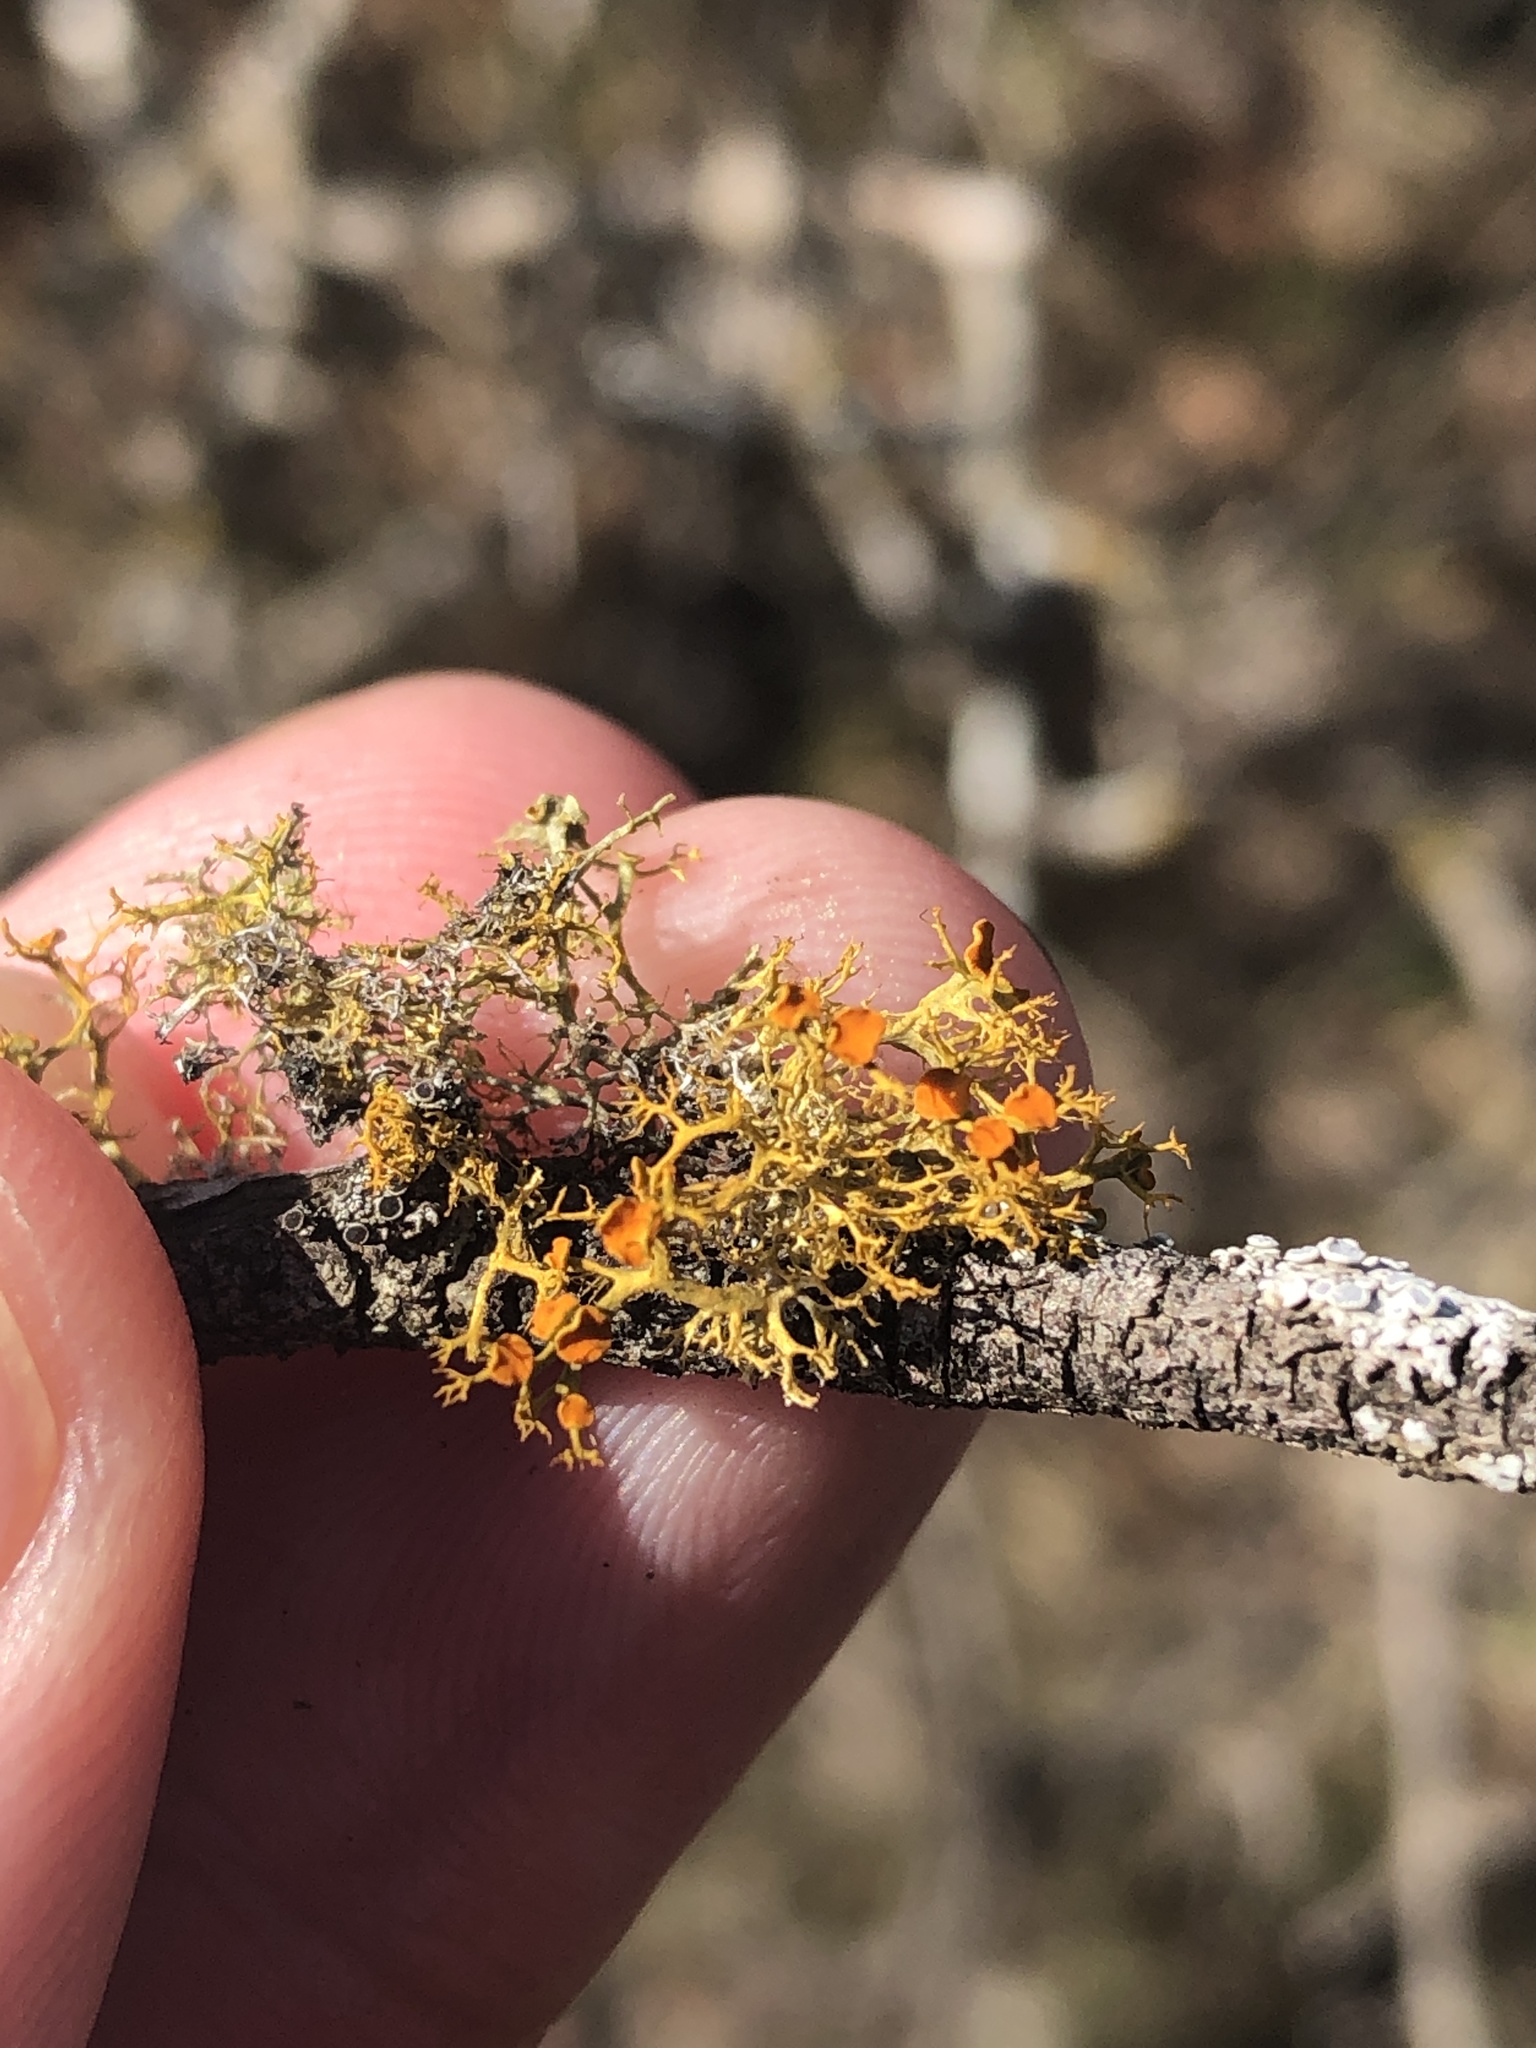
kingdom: Fungi
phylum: Ascomycota
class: Lecanoromycetes
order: Teloschistales
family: Teloschistaceae
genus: Teloschistes
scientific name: Teloschistes exilis
